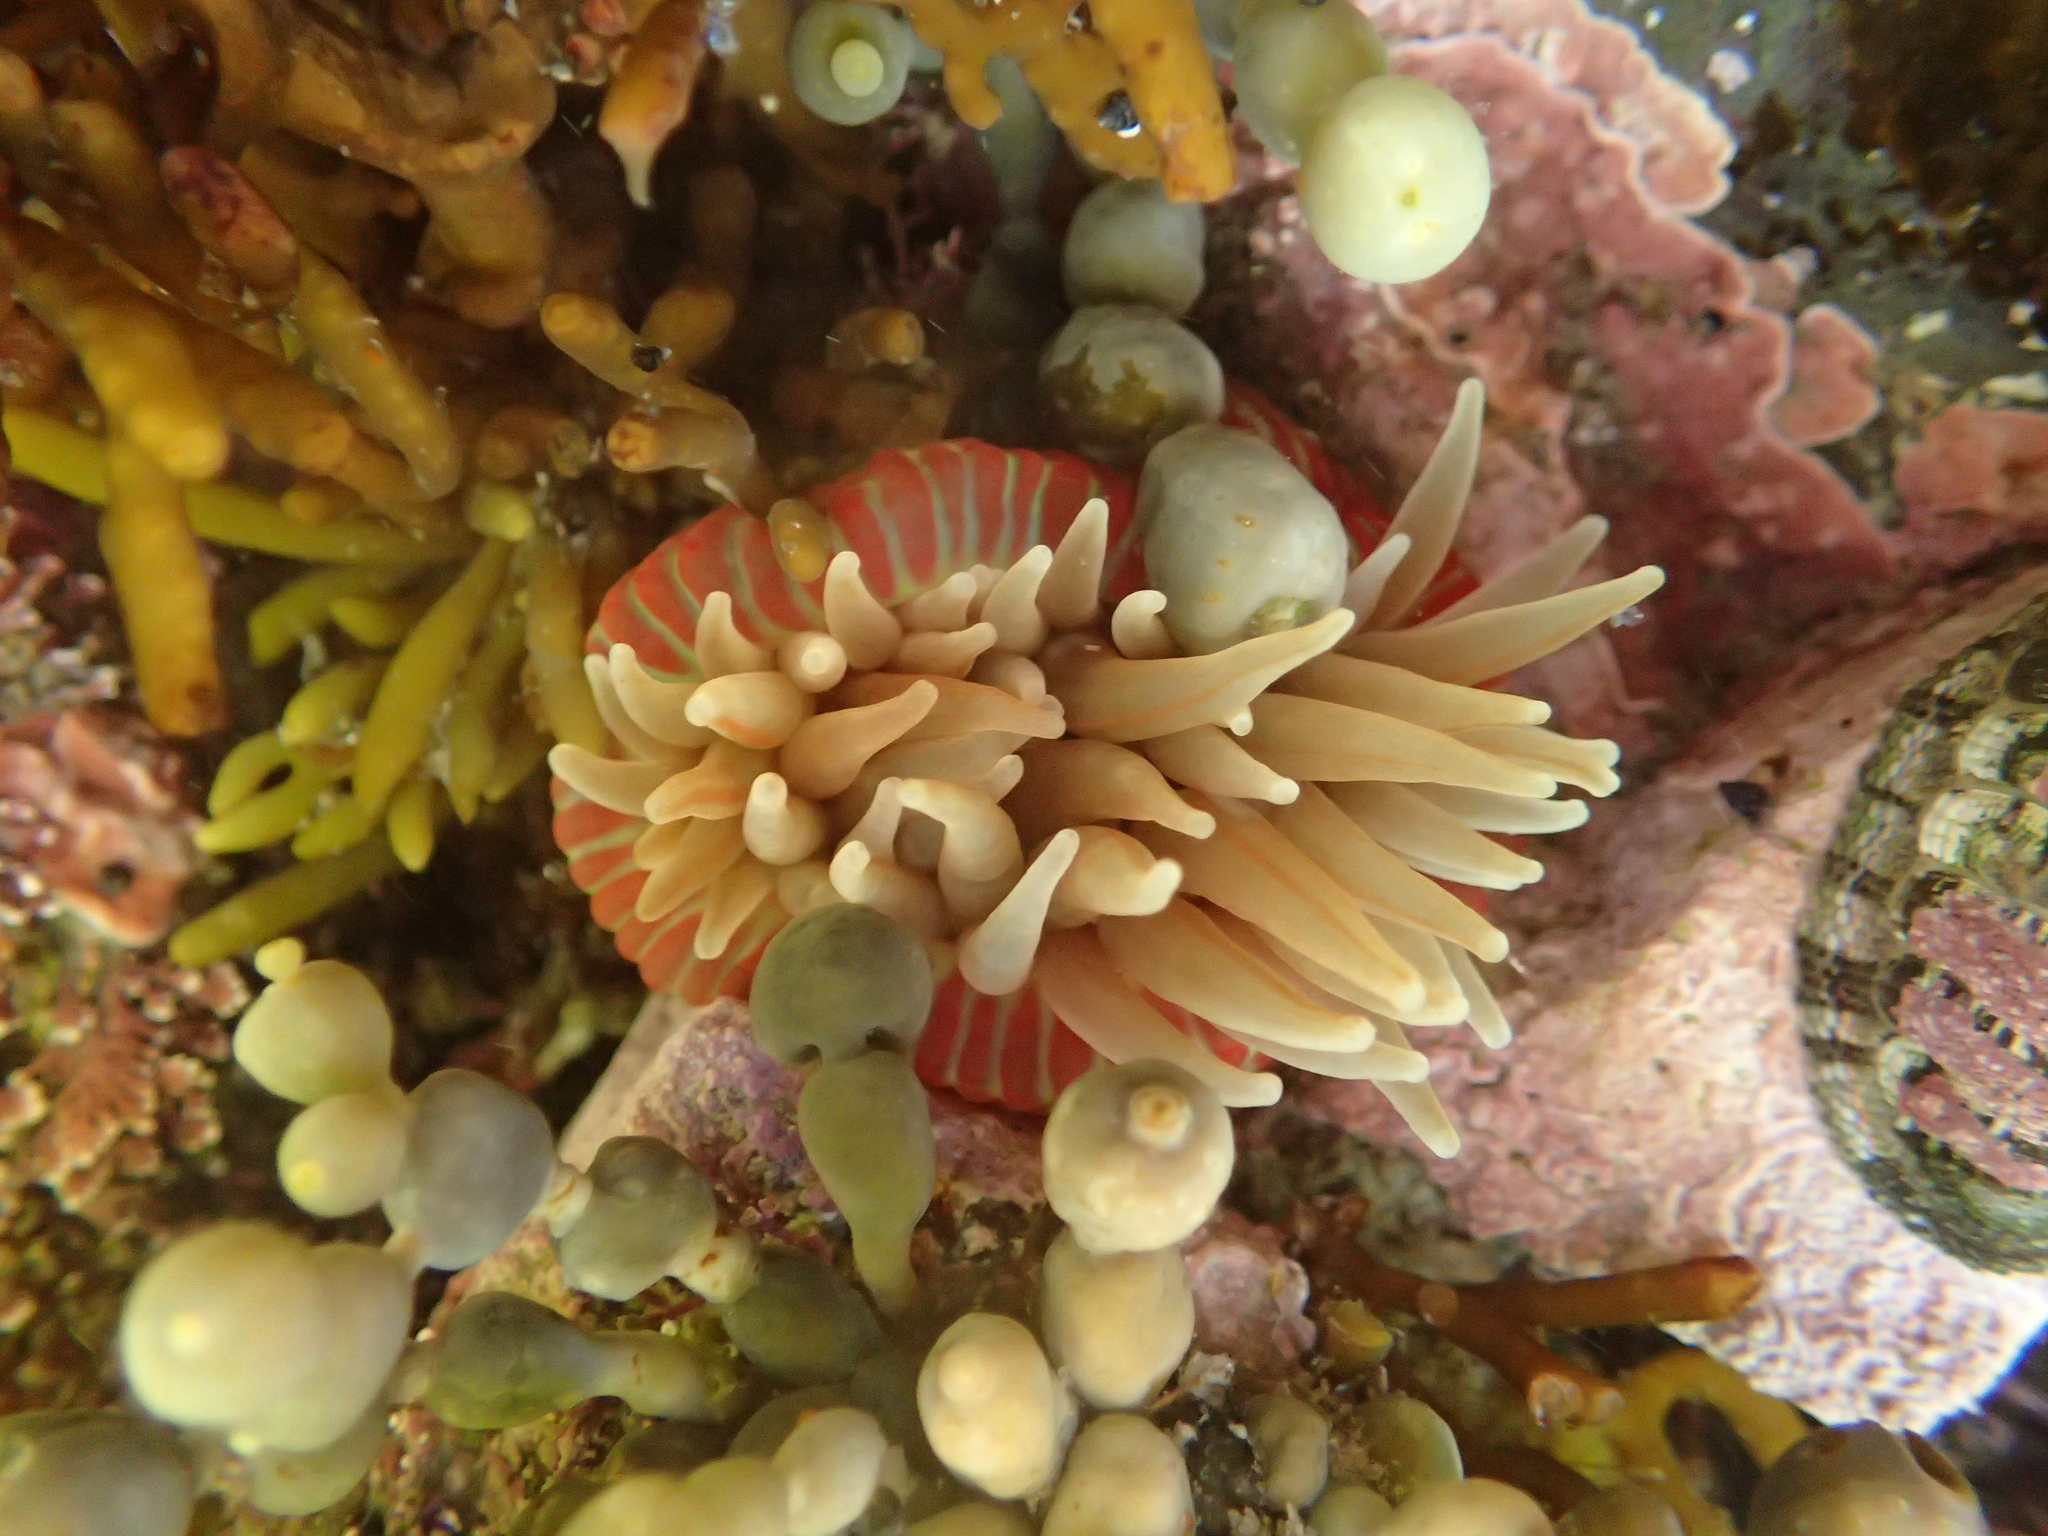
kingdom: Animalia
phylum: Cnidaria
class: Anthozoa
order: Actiniaria
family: Actiniidae
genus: Epiactis
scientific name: Epiactis thompsoni
